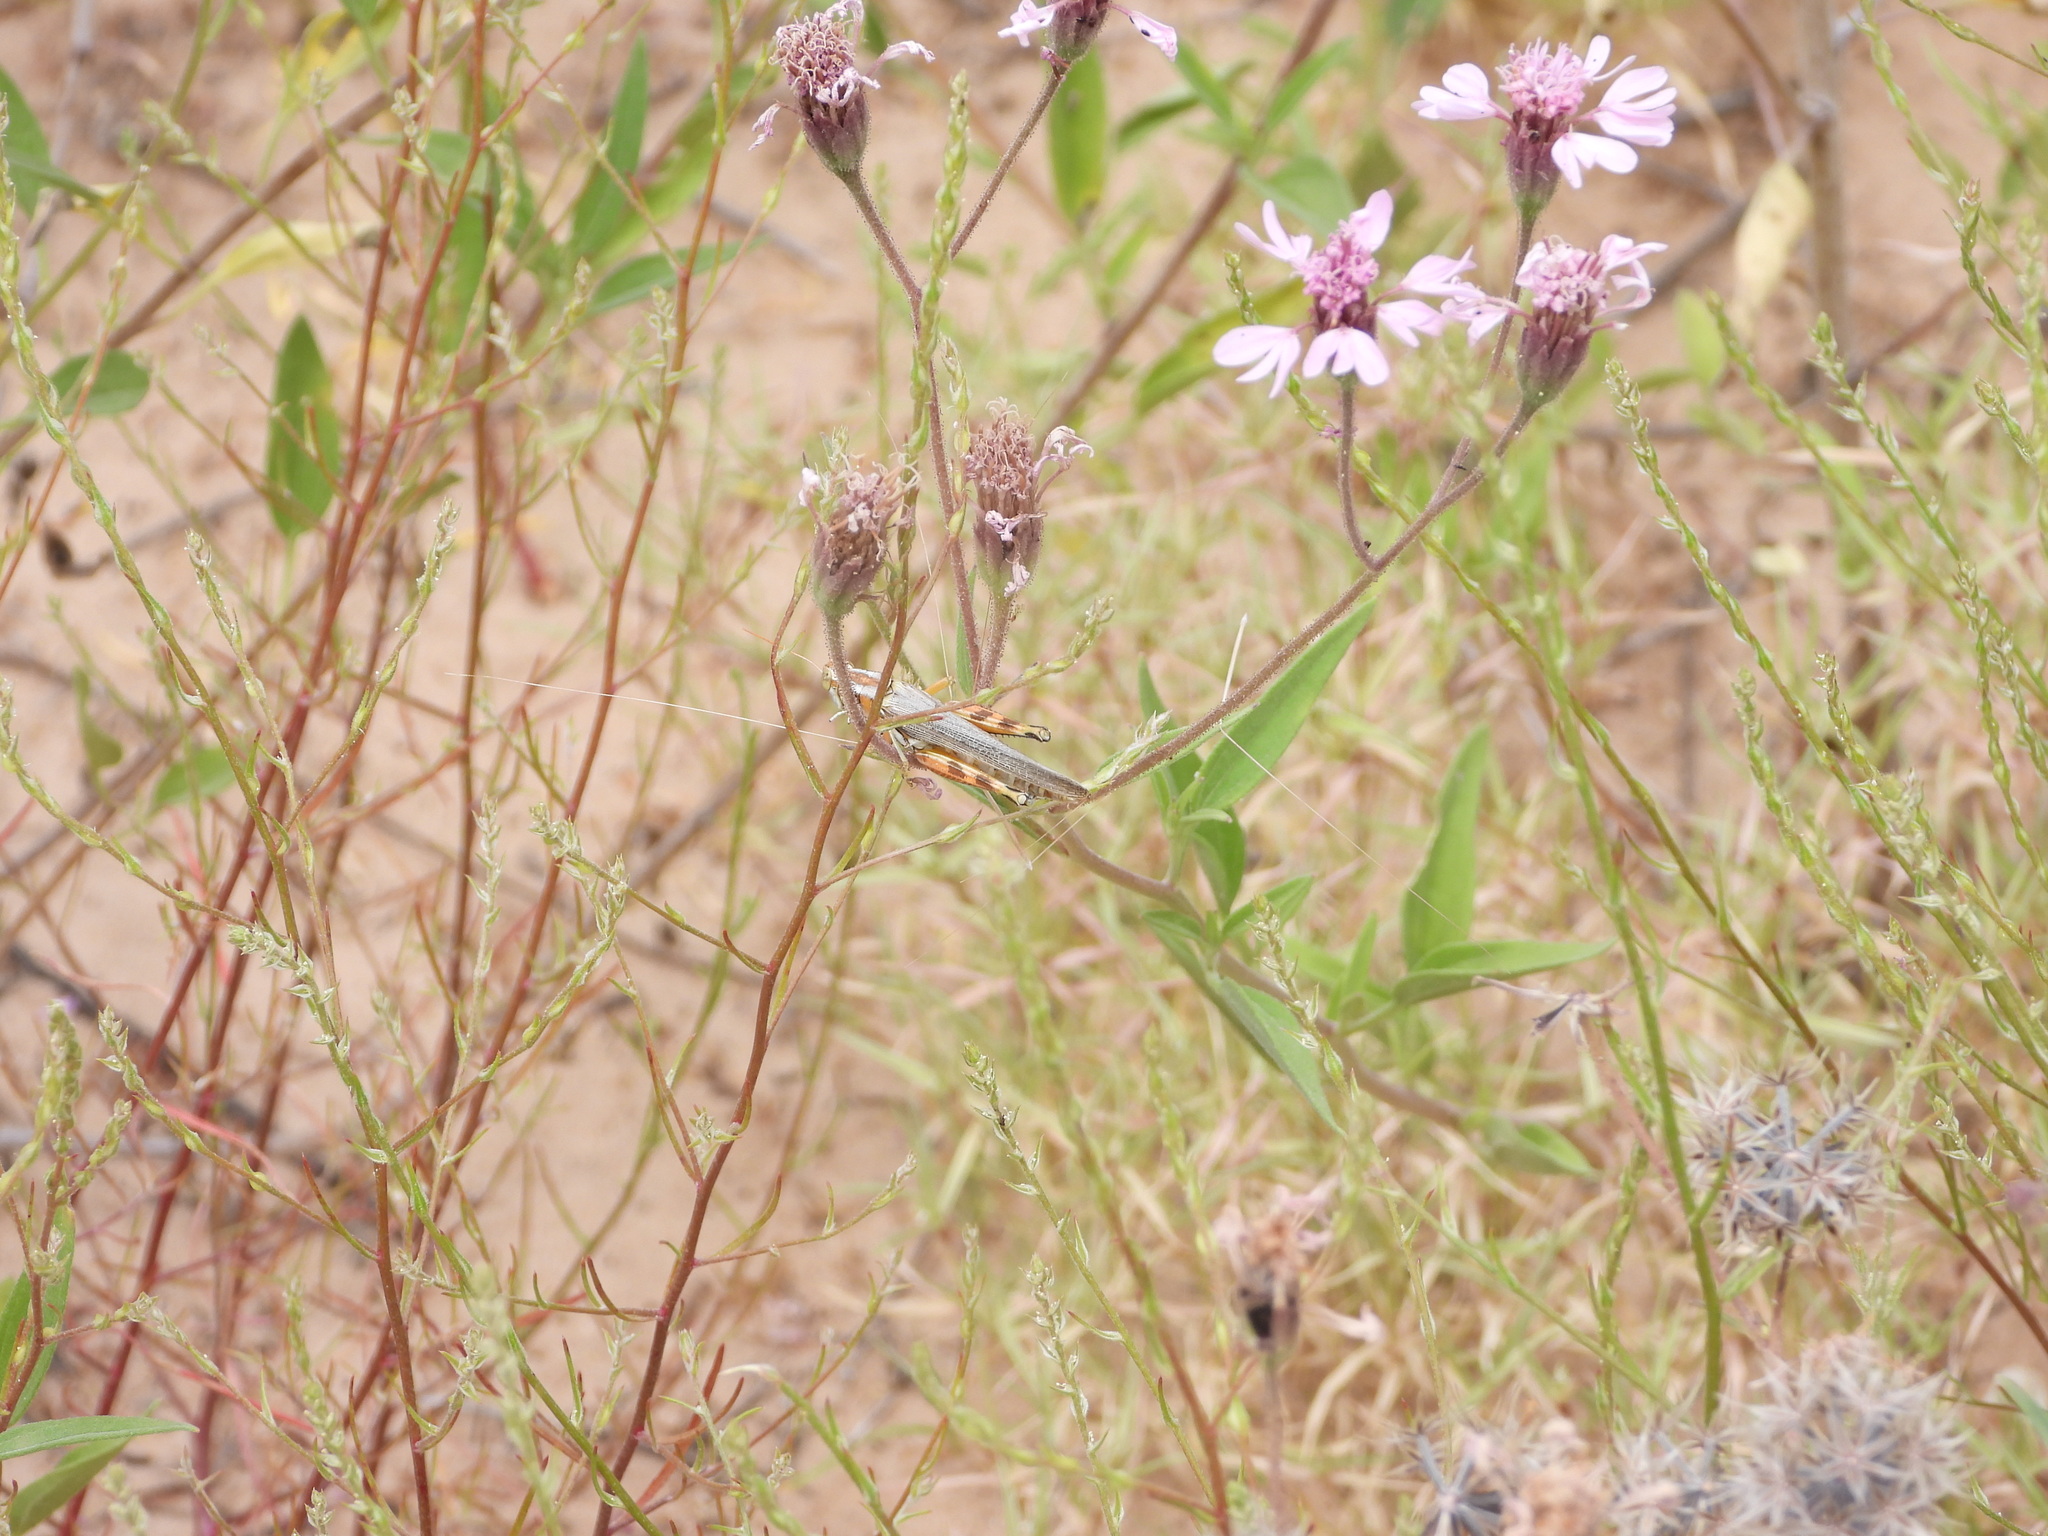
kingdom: Animalia
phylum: Arthropoda
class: Insecta
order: Orthoptera
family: Acrididae
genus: Melanoplus
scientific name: Melanoplus bowditchi
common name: Sagebrush grasshopper
